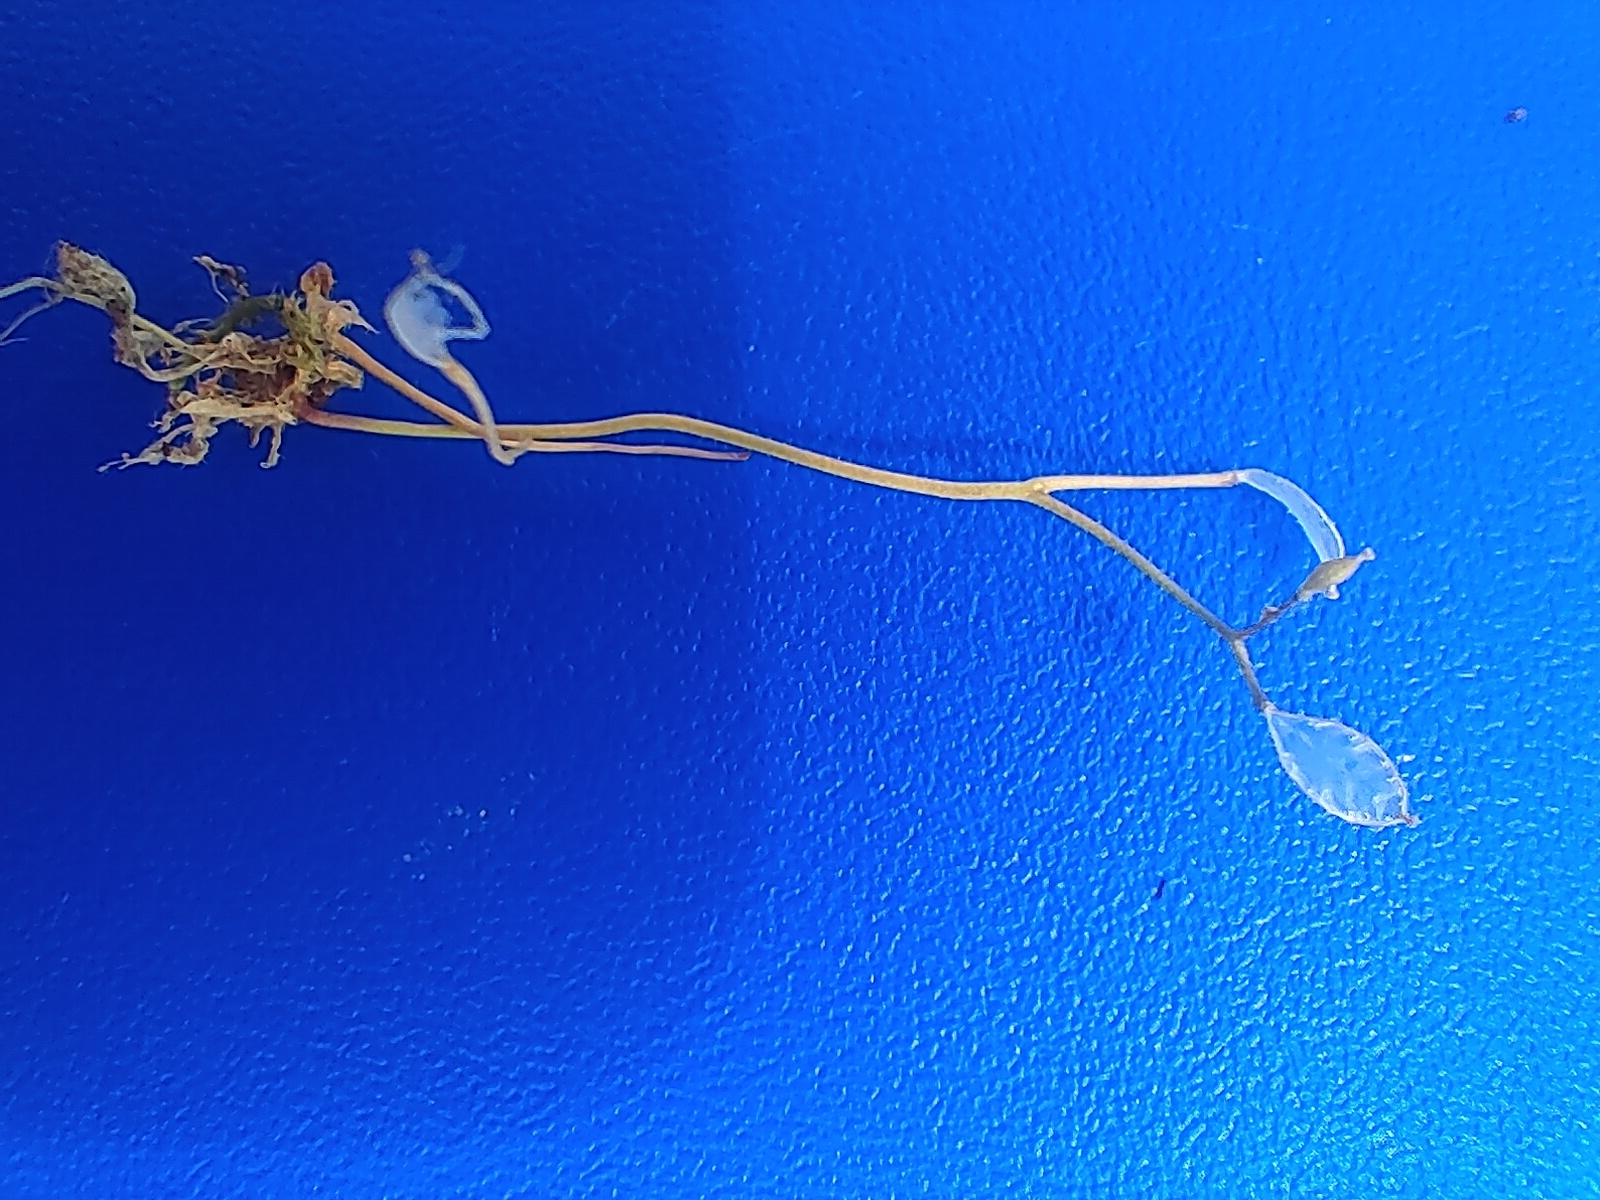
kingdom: Plantae
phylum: Tracheophyta
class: Magnoliopsida
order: Brassicales
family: Brassicaceae
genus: Draba
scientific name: Draba verna
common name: Spring draba
